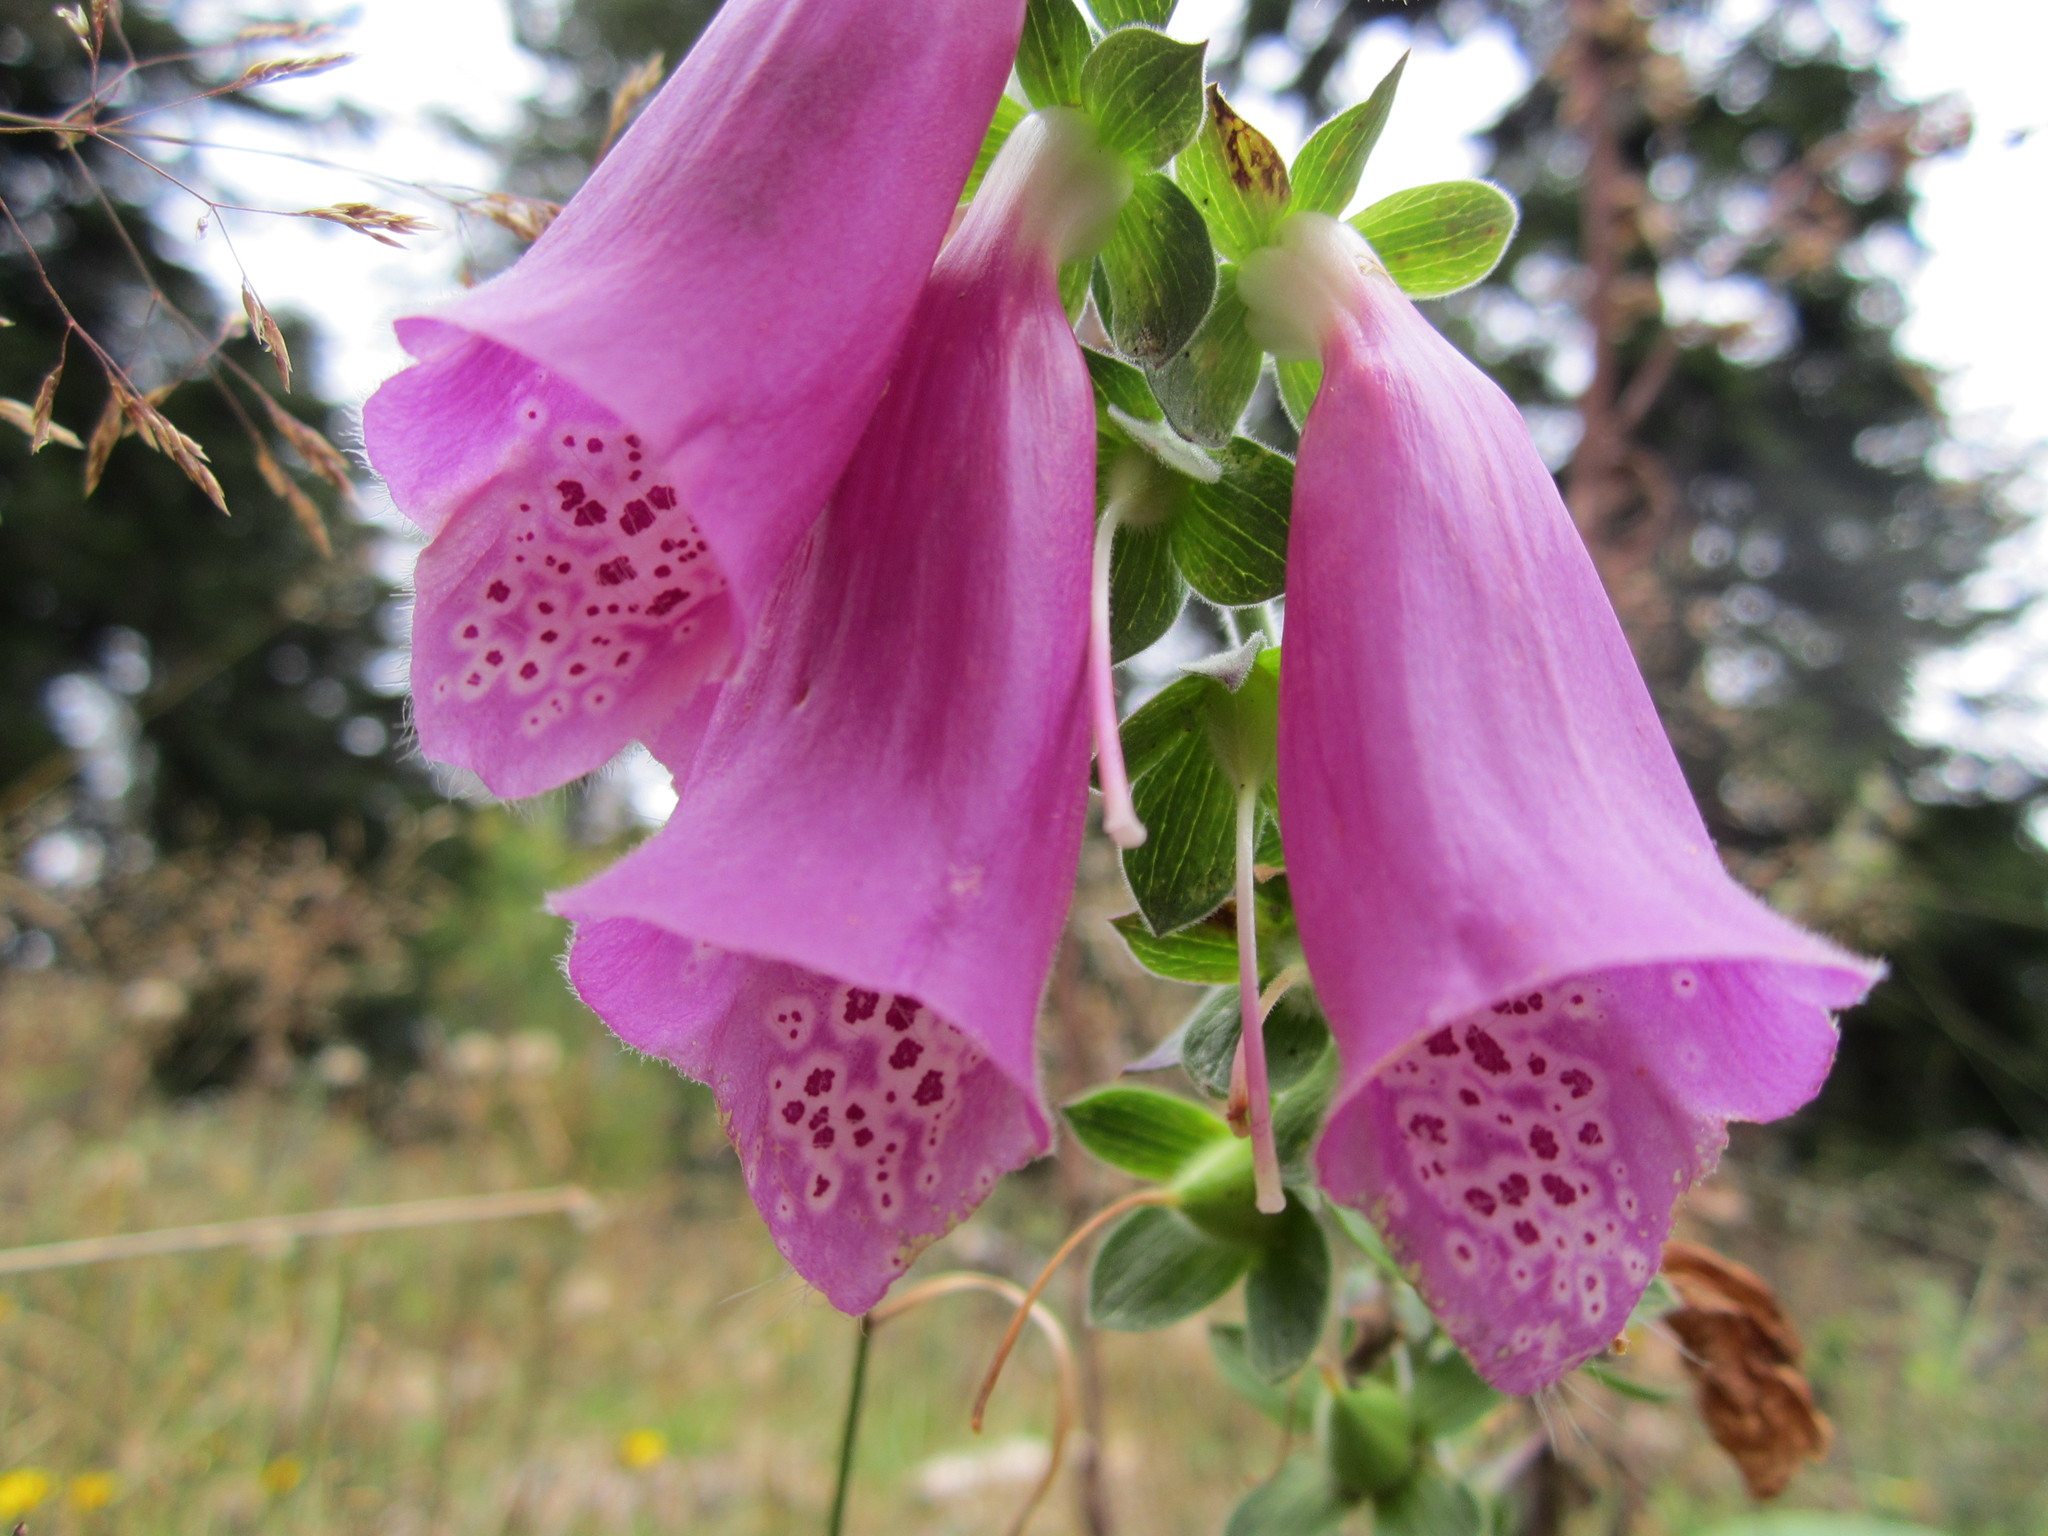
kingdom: Plantae
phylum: Tracheophyta
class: Magnoliopsida
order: Lamiales
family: Plantaginaceae
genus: Digitalis
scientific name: Digitalis purpurea
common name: Foxglove
